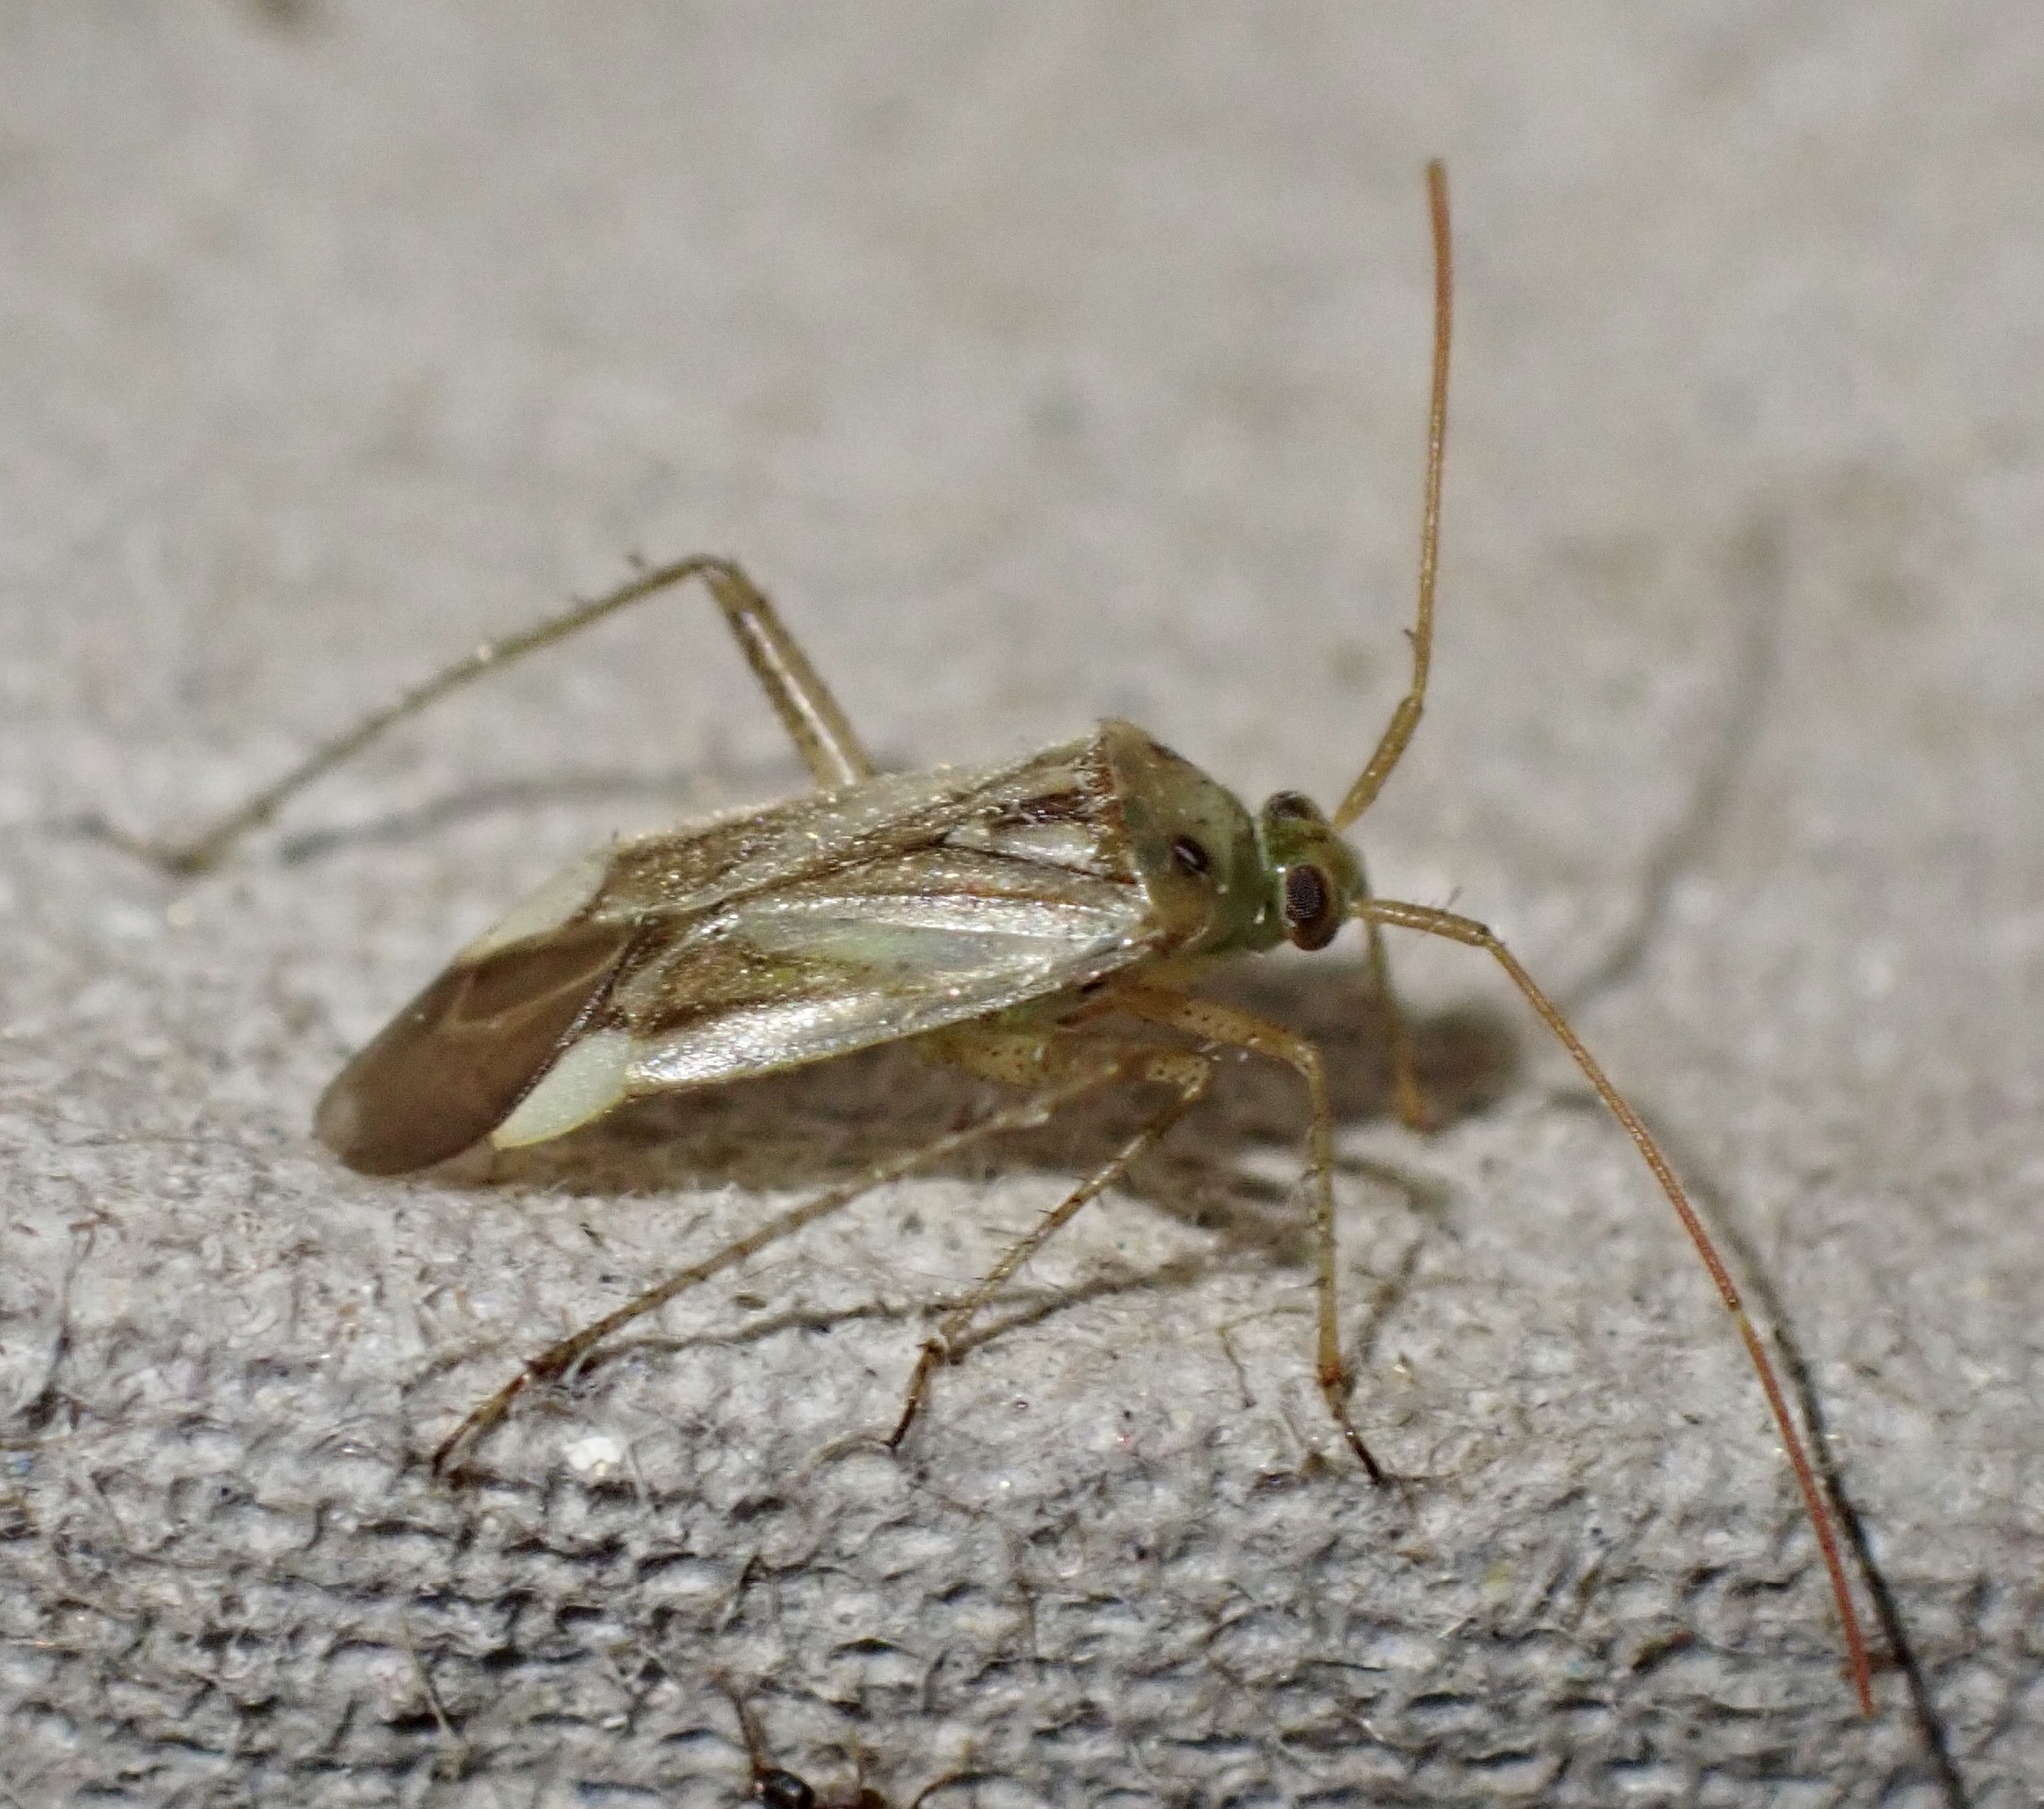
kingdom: Animalia
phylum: Arthropoda
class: Insecta
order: Hemiptera
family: Miridae
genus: Adelphocoris
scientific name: Adelphocoris lineolatus
